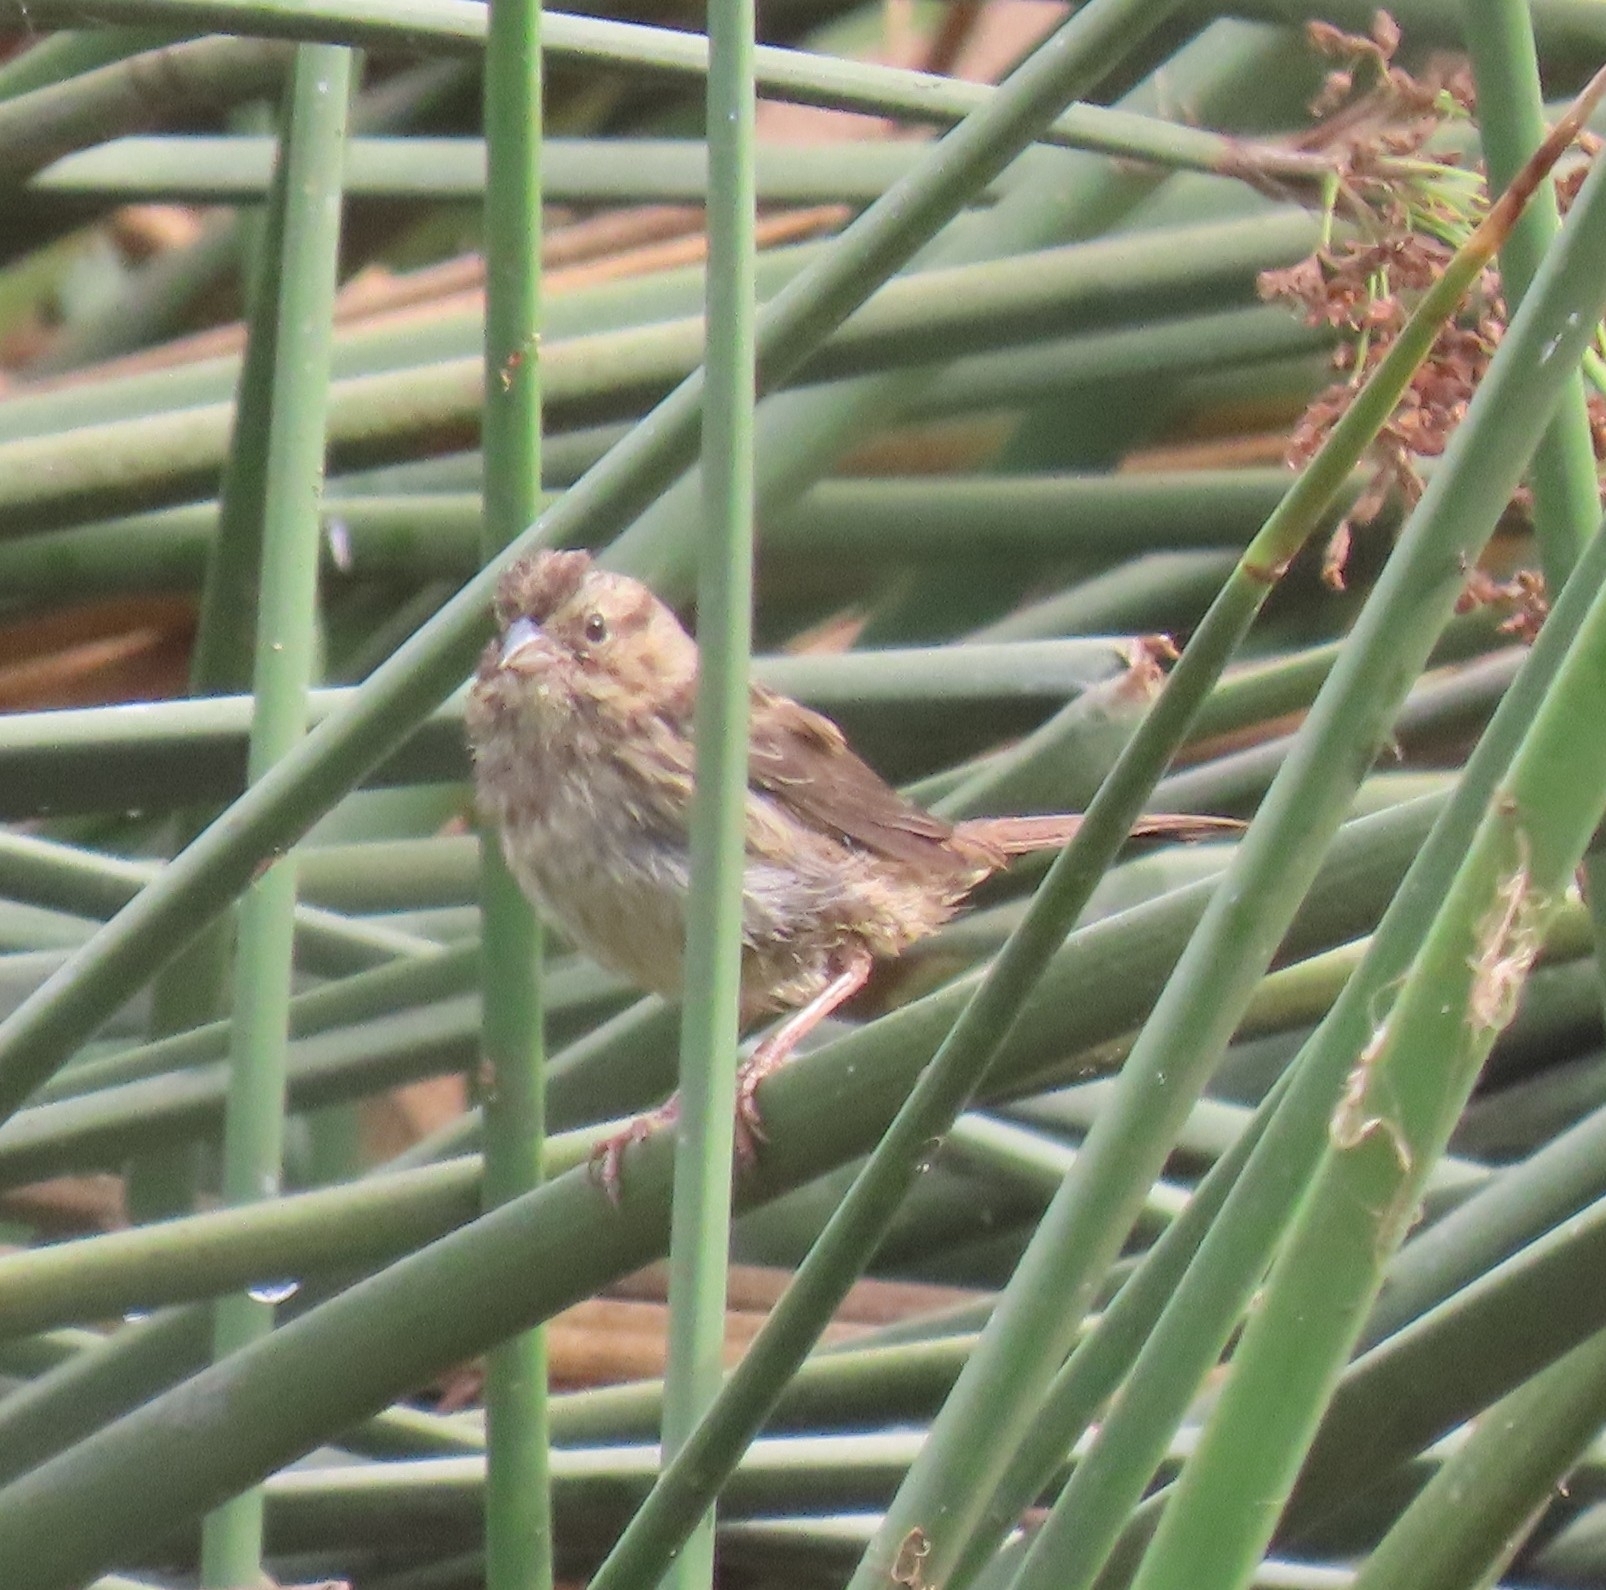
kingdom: Animalia
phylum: Chordata
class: Aves
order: Passeriformes
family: Passerellidae
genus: Melospiza
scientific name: Melospiza melodia
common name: Song sparrow
